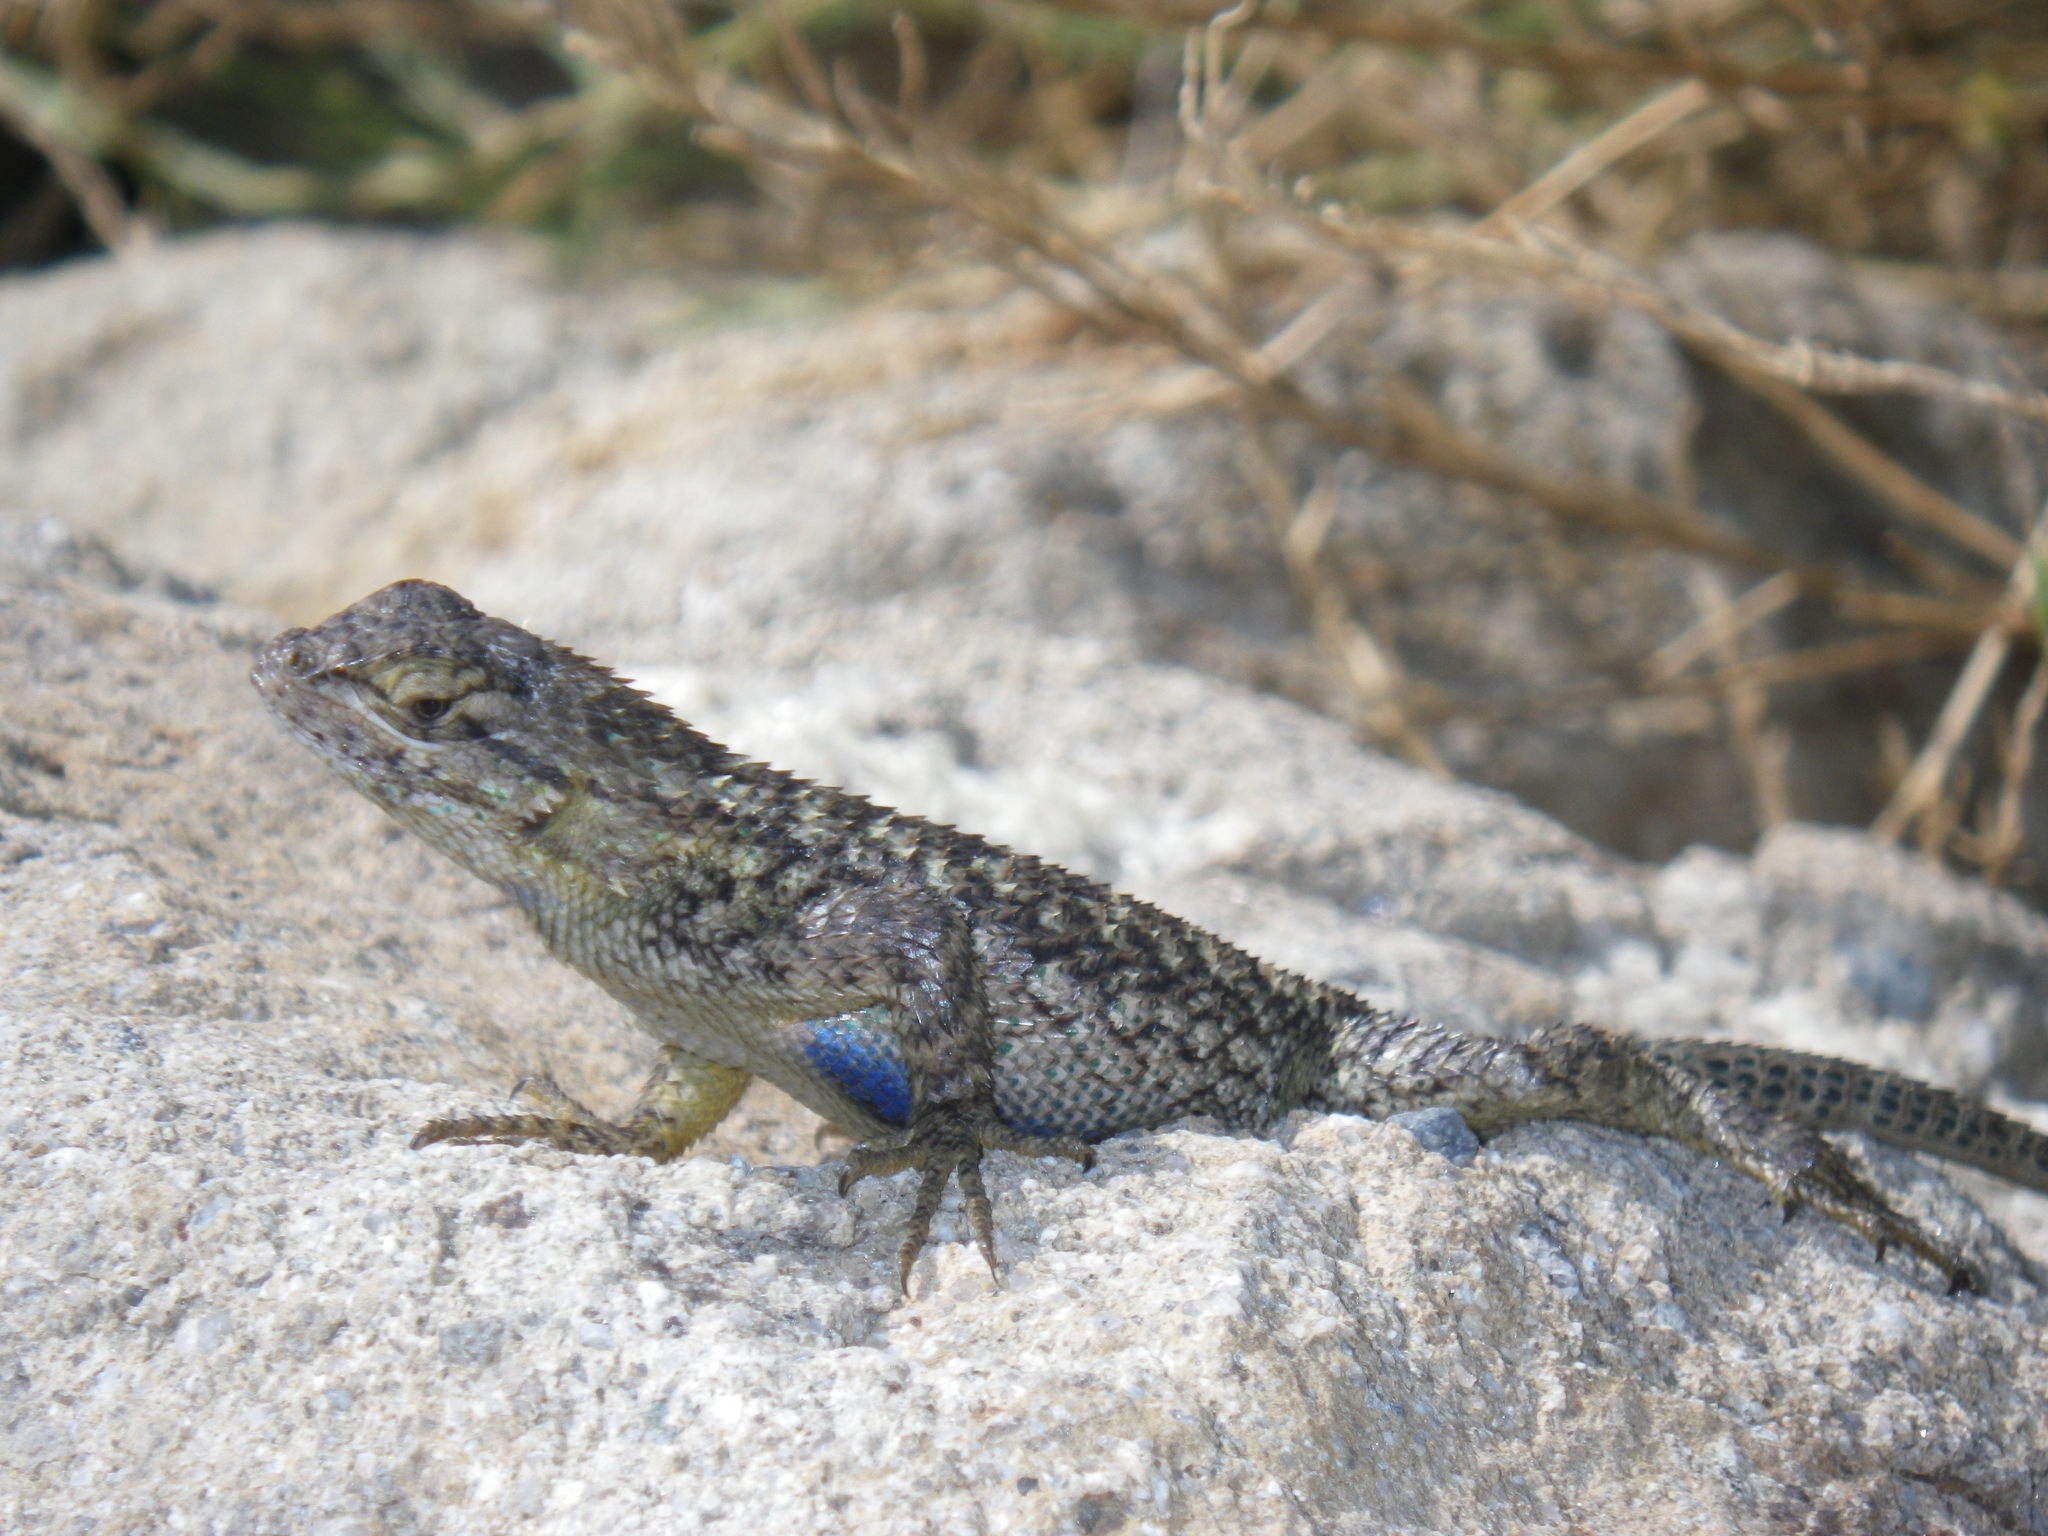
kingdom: Animalia
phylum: Chordata
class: Squamata
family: Phrynosomatidae
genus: Sceloporus
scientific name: Sceloporus occidentalis
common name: Western fence lizard
